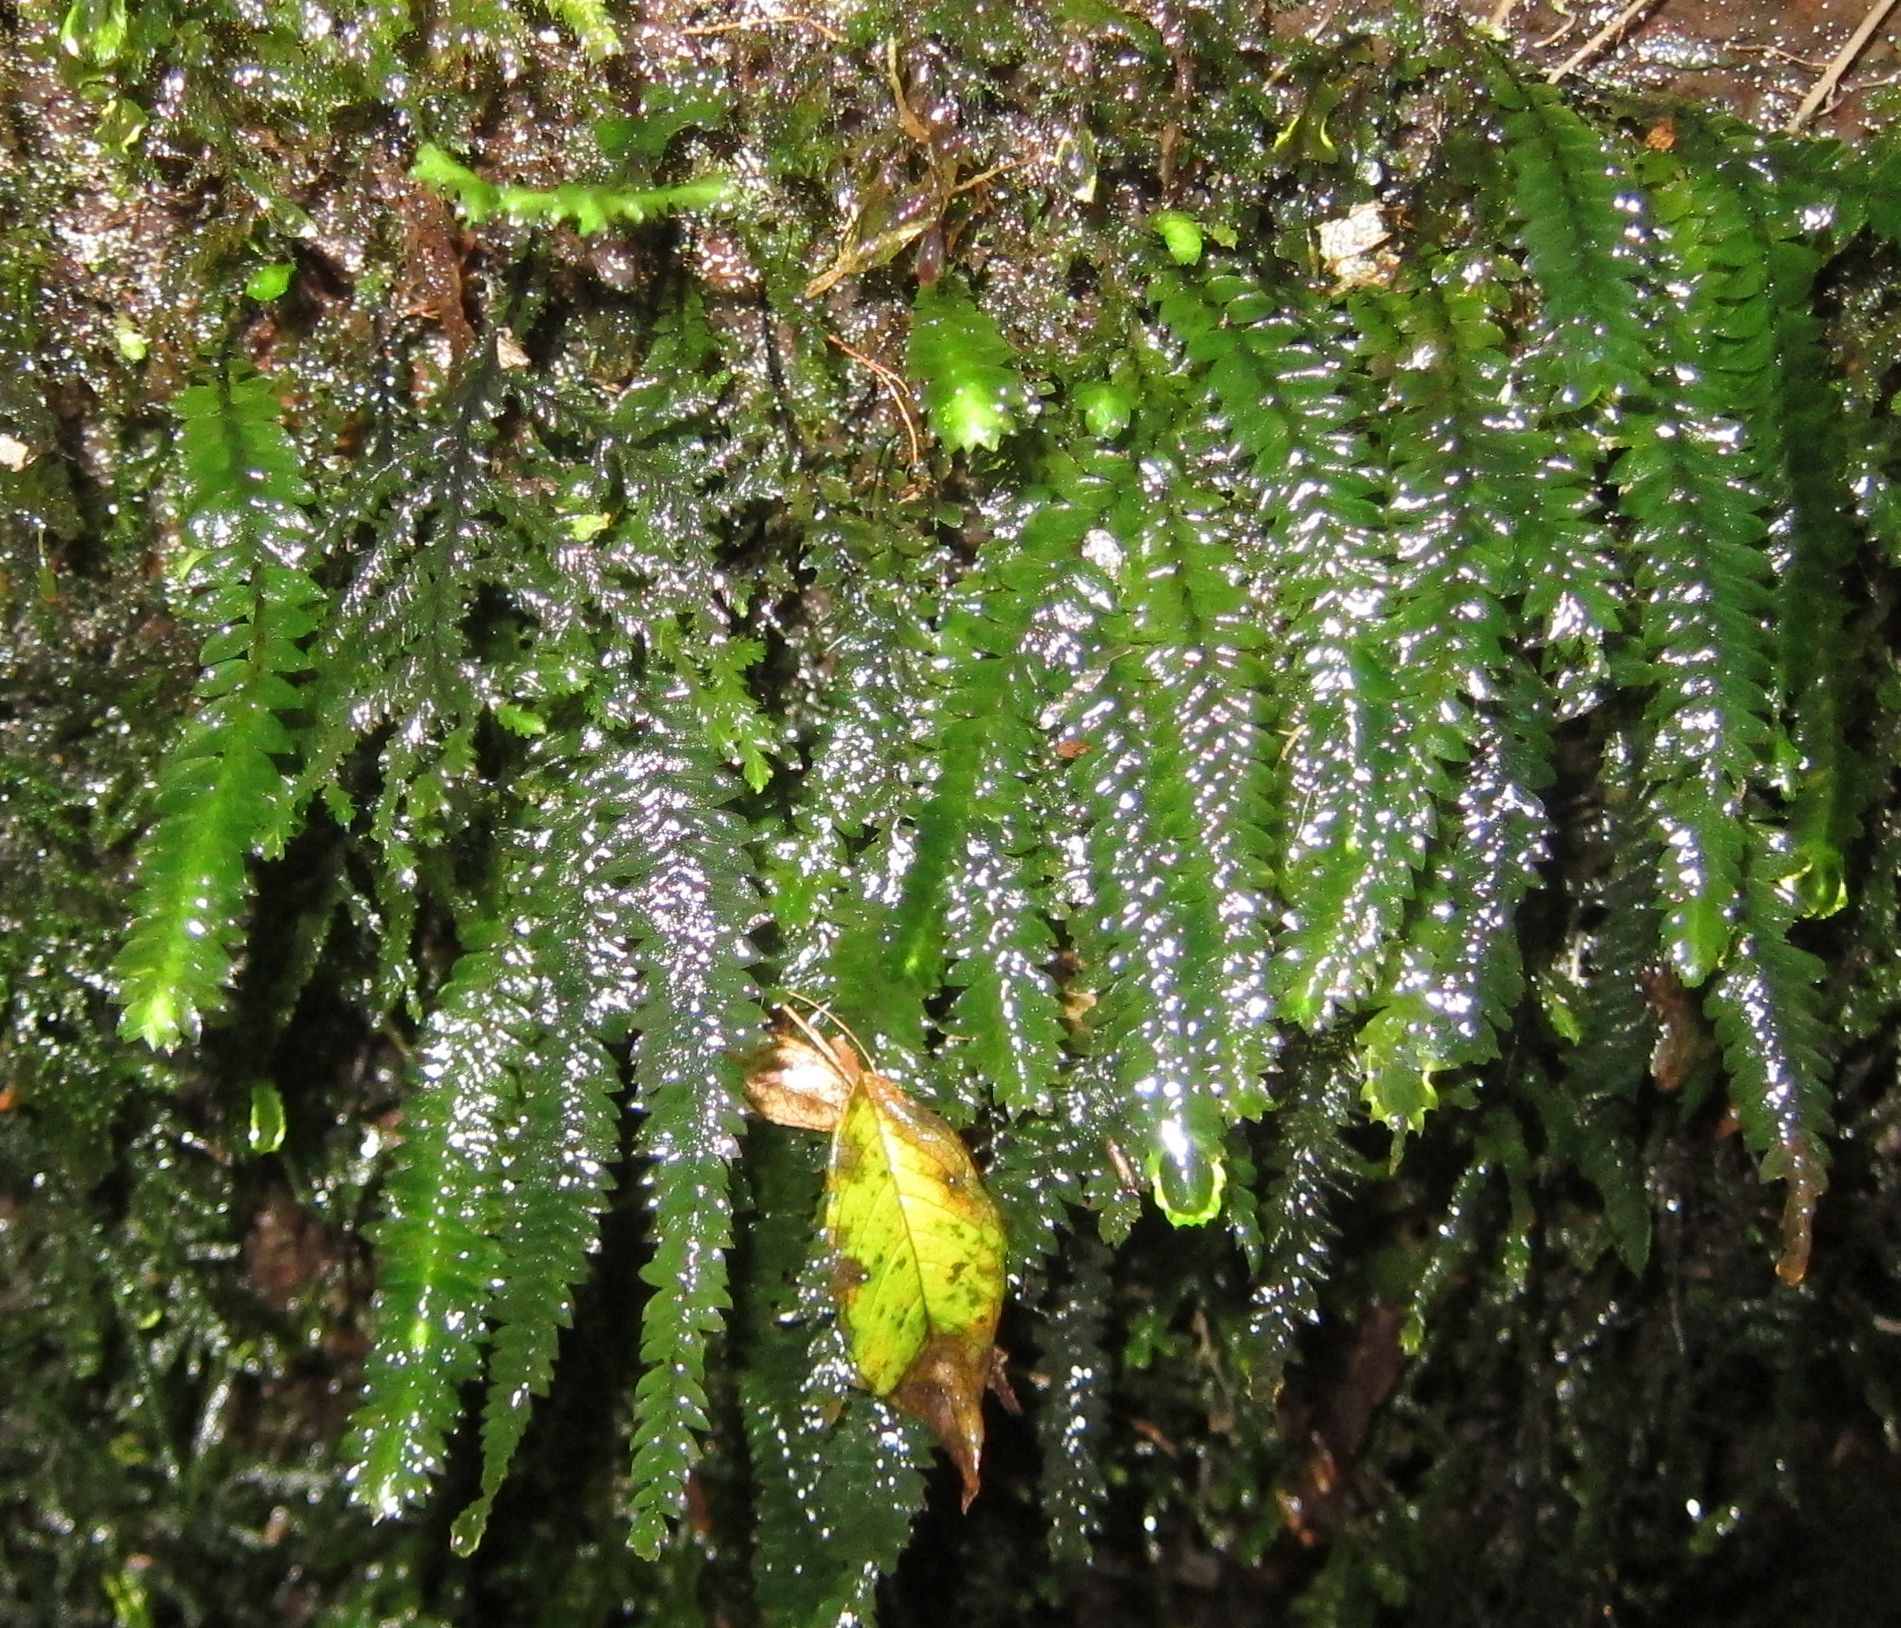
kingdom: Plantae
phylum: Bryophyta
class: Bryopsida
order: Hypopterygiales
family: Hypopterygiaceae
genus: Cyathophorum
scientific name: Cyathophorum bulbosum
